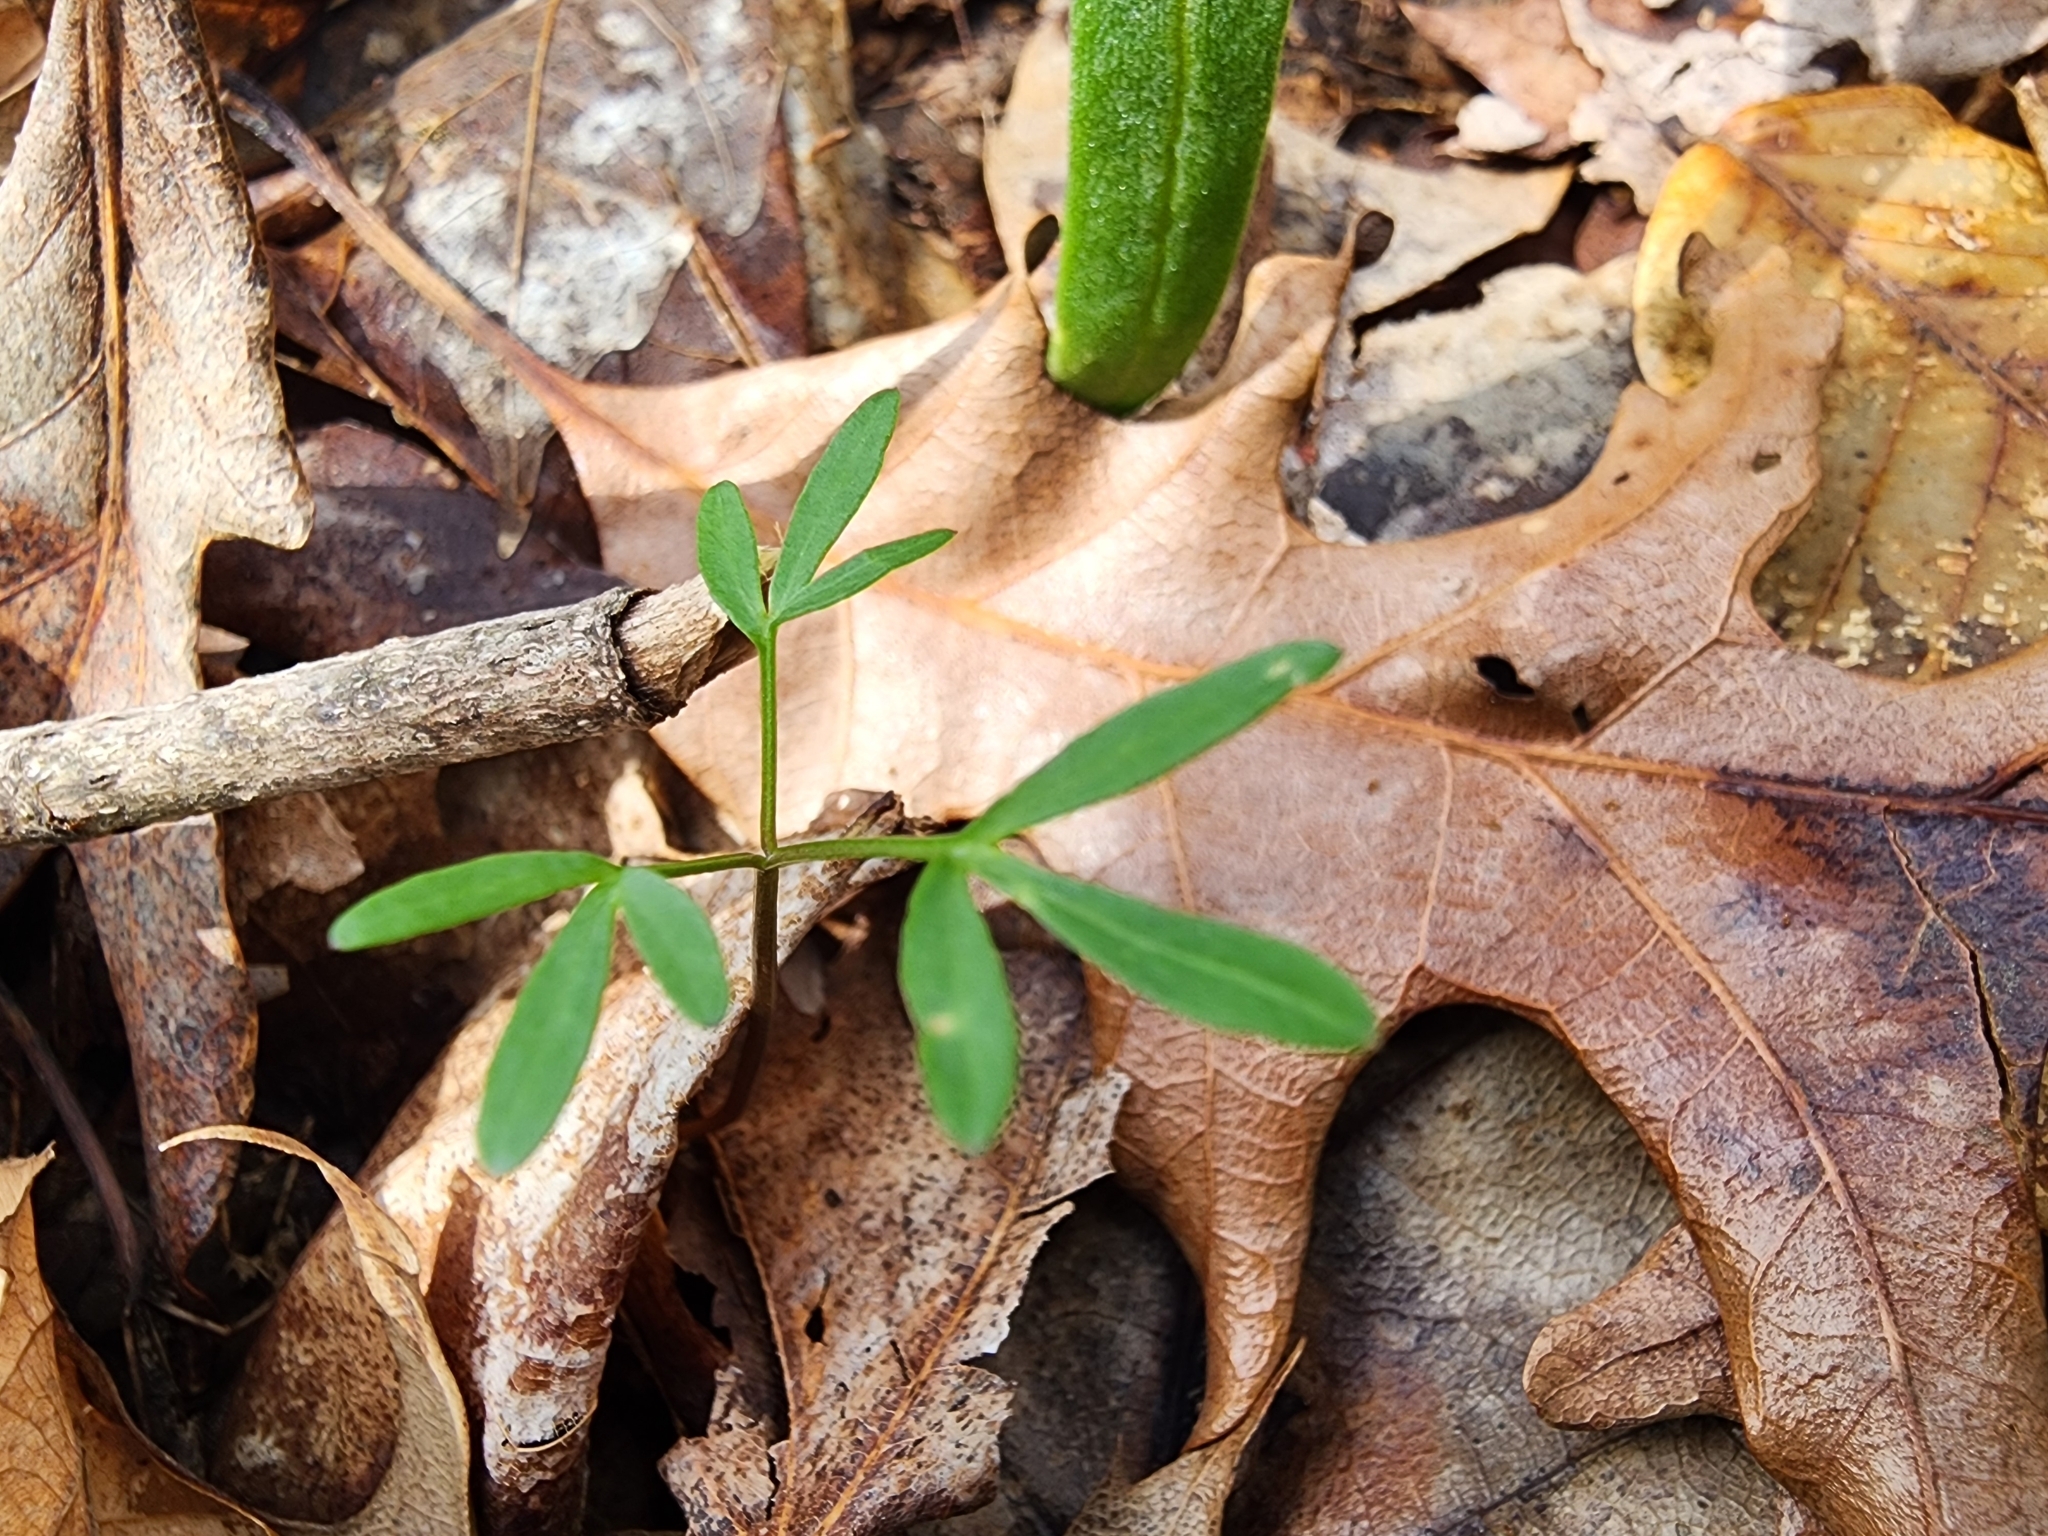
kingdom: Plantae
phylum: Tracheophyta
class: Magnoliopsida
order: Apiales
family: Apiaceae
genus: Erigenia
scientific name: Erigenia bulbosa
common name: Pepper-and-salt
